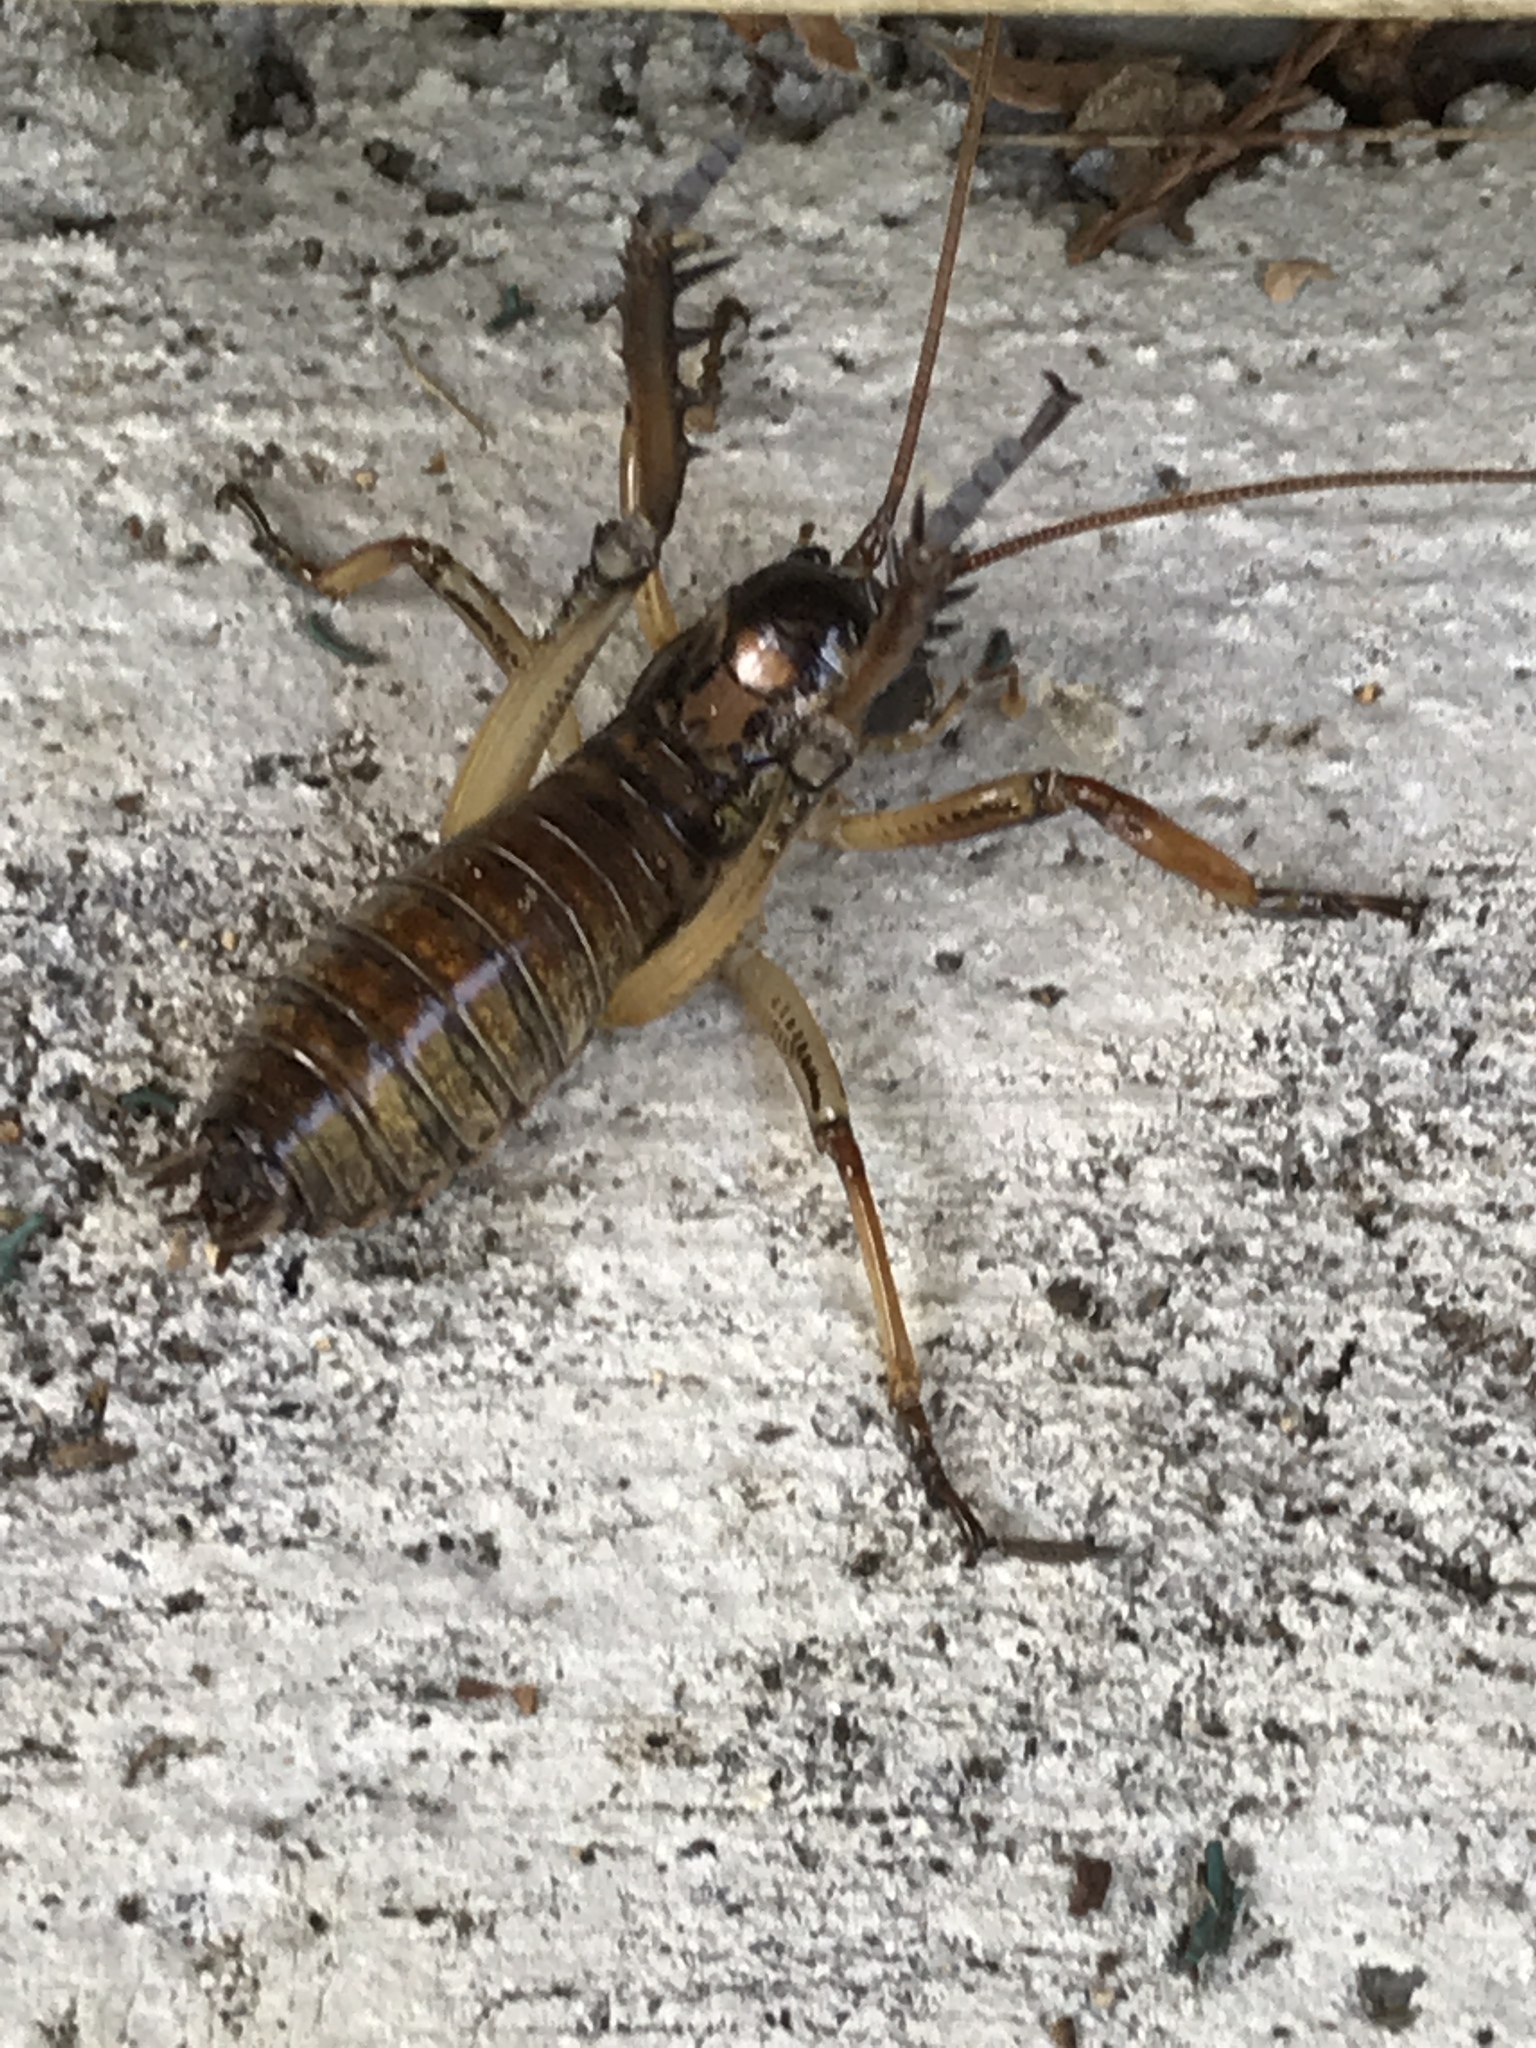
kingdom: Animalia
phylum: Arthropoda
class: Insecta
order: Orthoptera
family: Anostostomatidae
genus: Hemideina
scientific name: Hemideina thoracica
